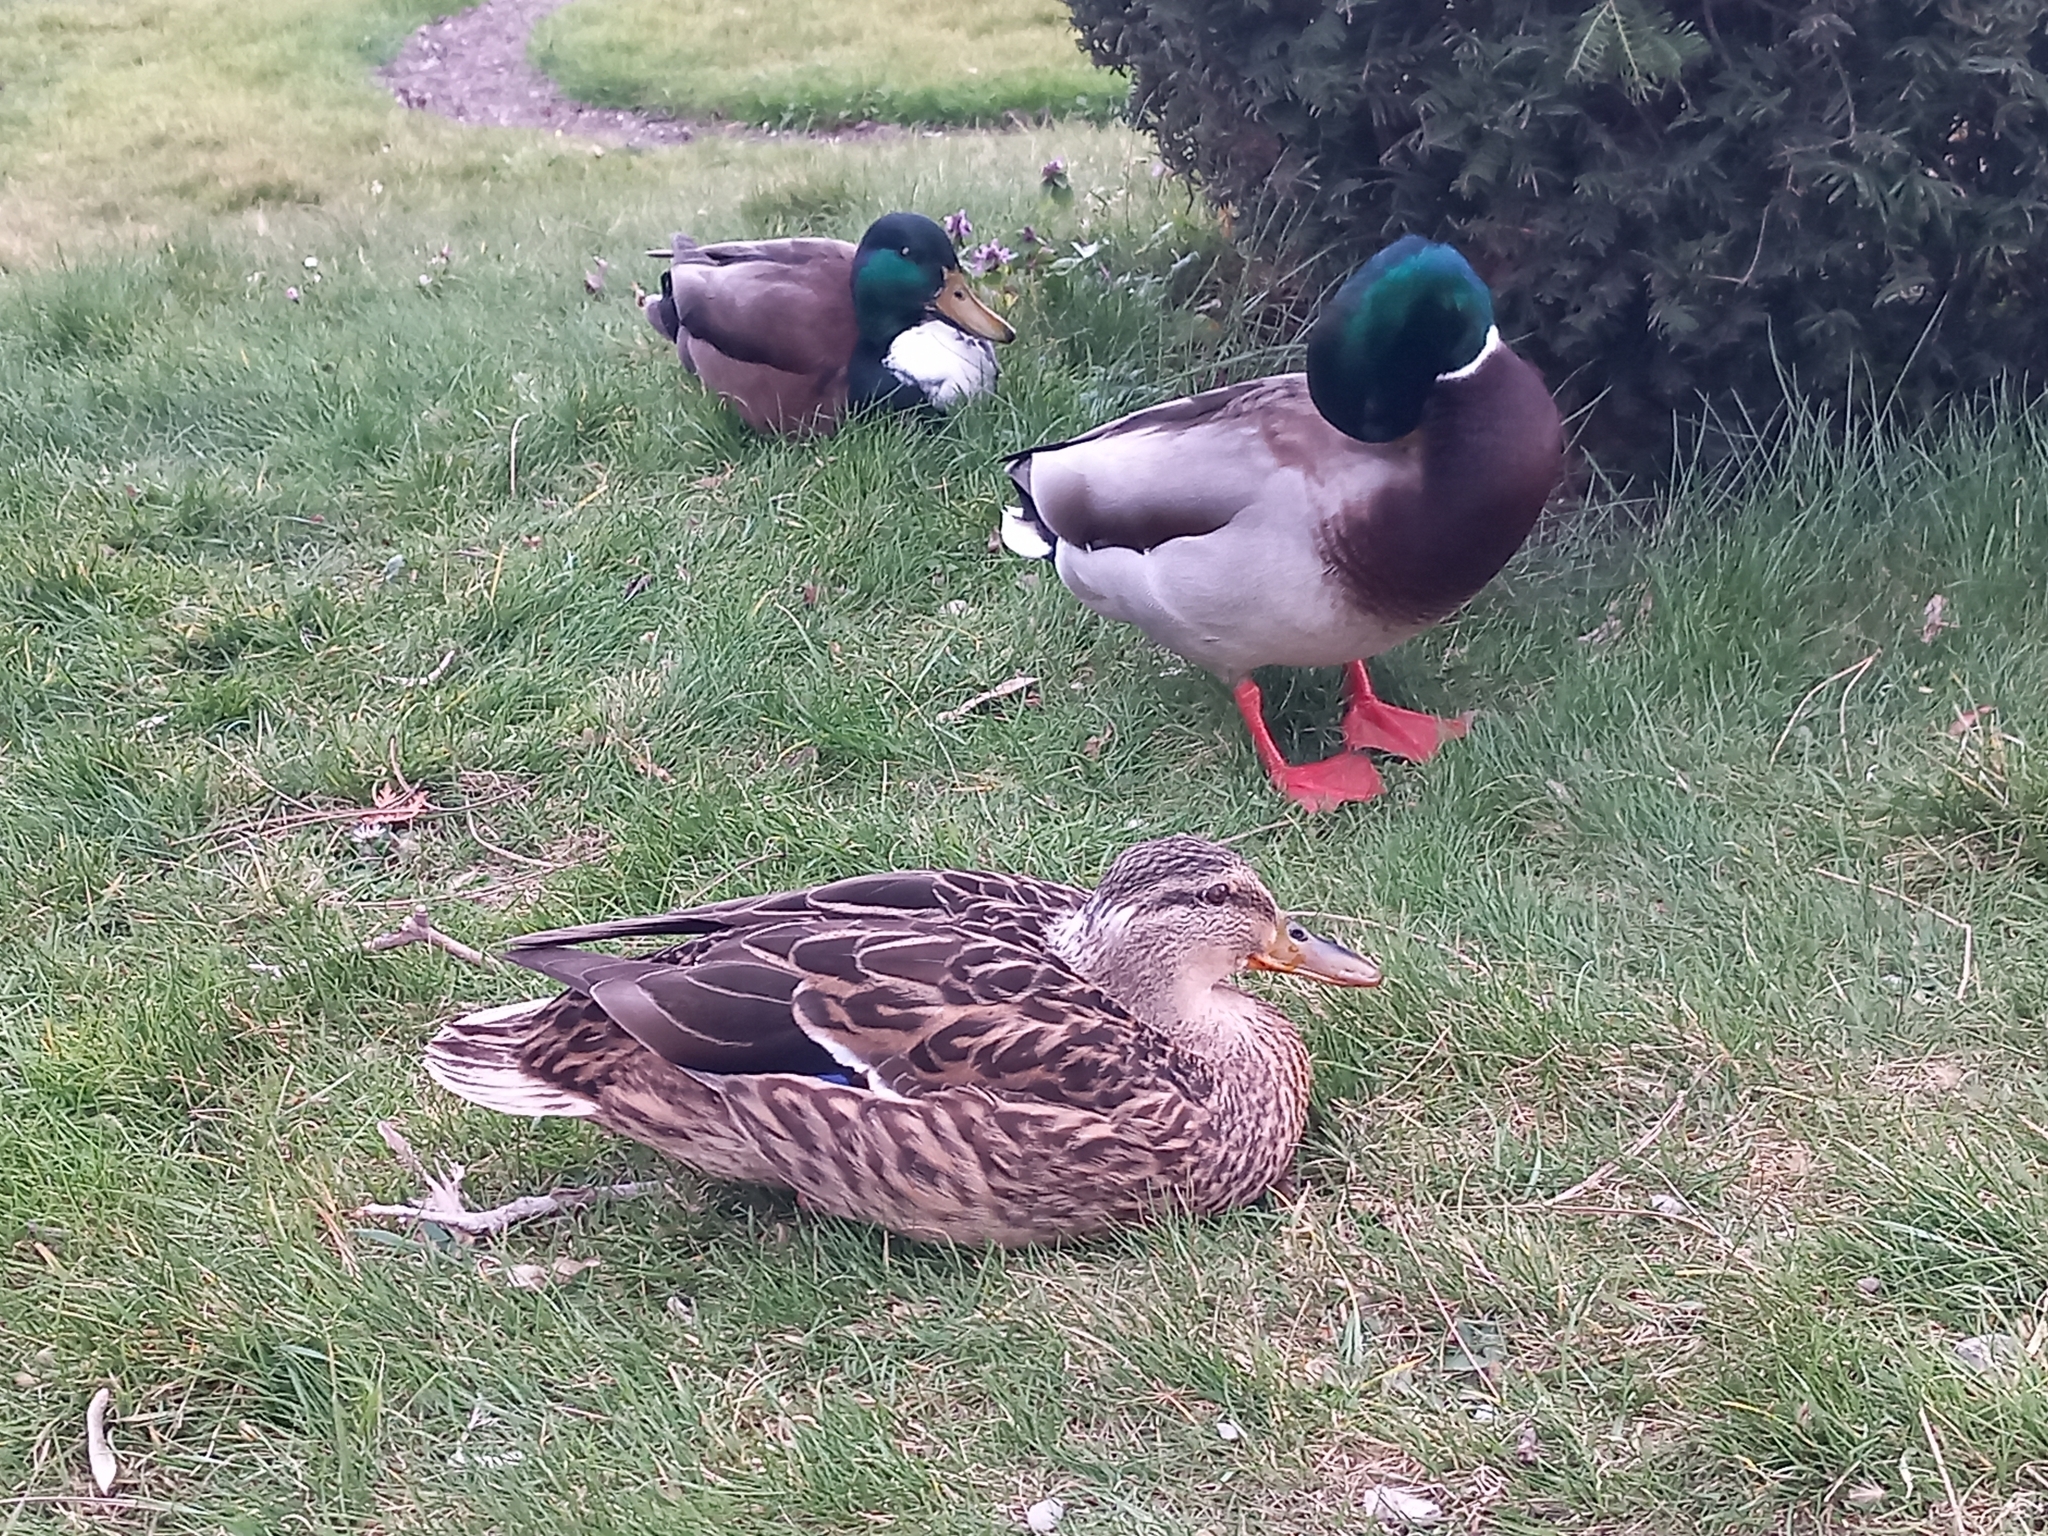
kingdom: Animalia
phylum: Chordata
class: Aves
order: Anseriformes
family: Anatidae
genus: Anas
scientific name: Anas platyrhynchos
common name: Mallard
